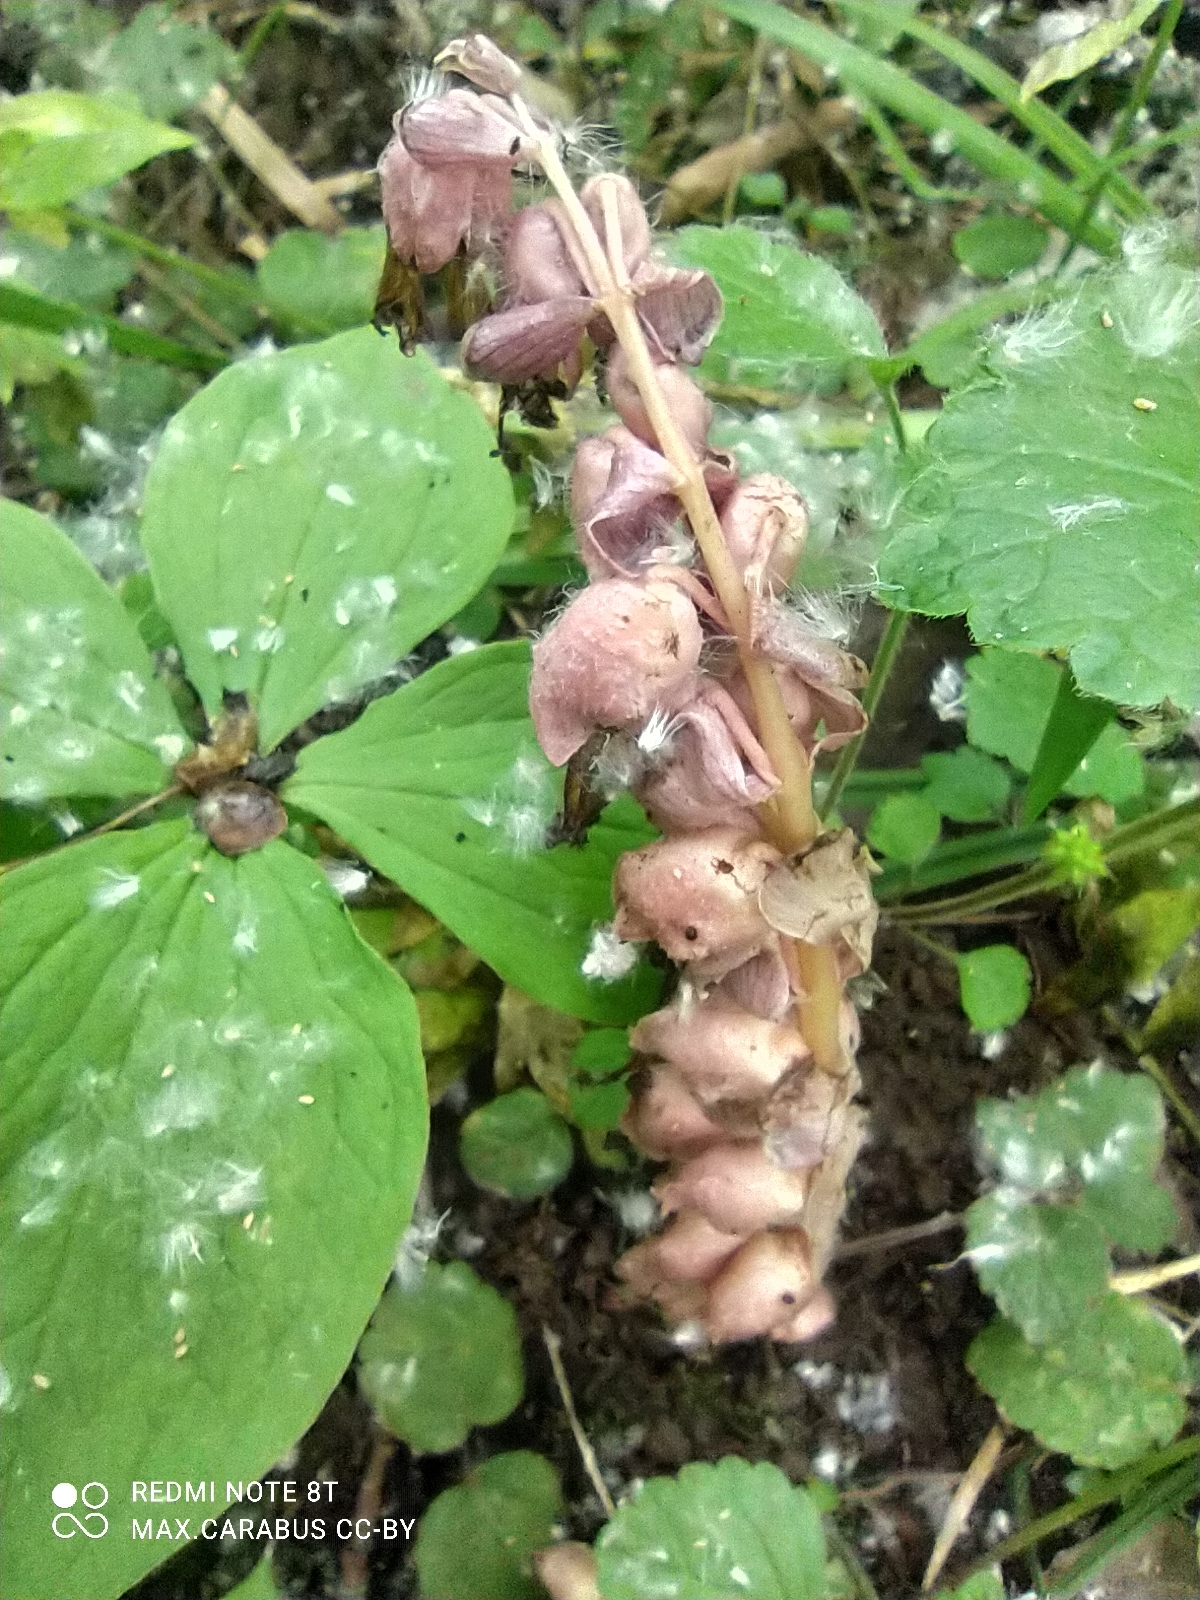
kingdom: Plantae
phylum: Tracheophyta
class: Magnoliopsida
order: Lamiales
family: Orobanchaceae
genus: Lathraea
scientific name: Lathraea squamaria
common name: Toothwort
